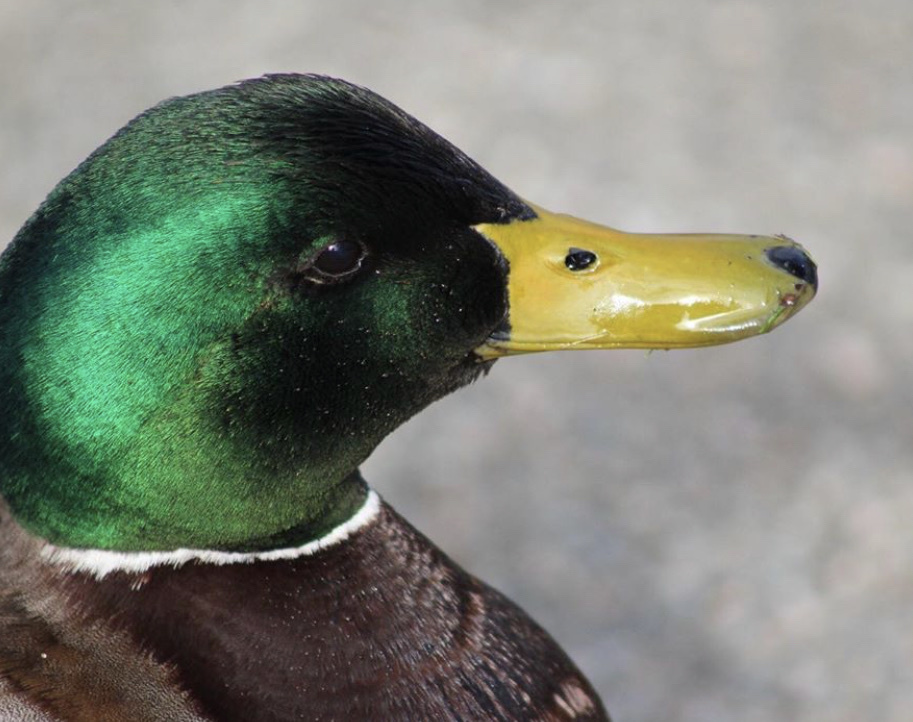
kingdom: Animalia
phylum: Chordata
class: Aves
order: Anseriformes
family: Anatidae
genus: Anas
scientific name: Anas platyrhynchos
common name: Mallard
